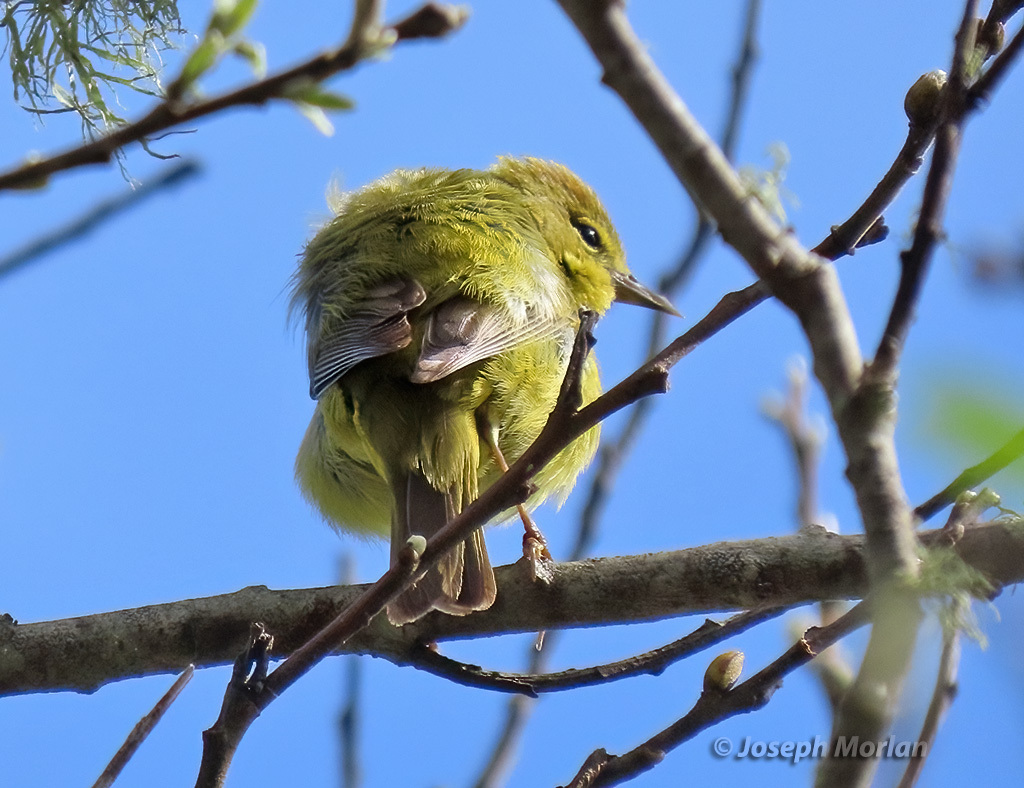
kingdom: Animalia
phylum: Chordata
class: Aves
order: Passeriformes
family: Parulidae
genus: Leiothlypis
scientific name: Leiothlypis celata
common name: Orange-crowned warbler
